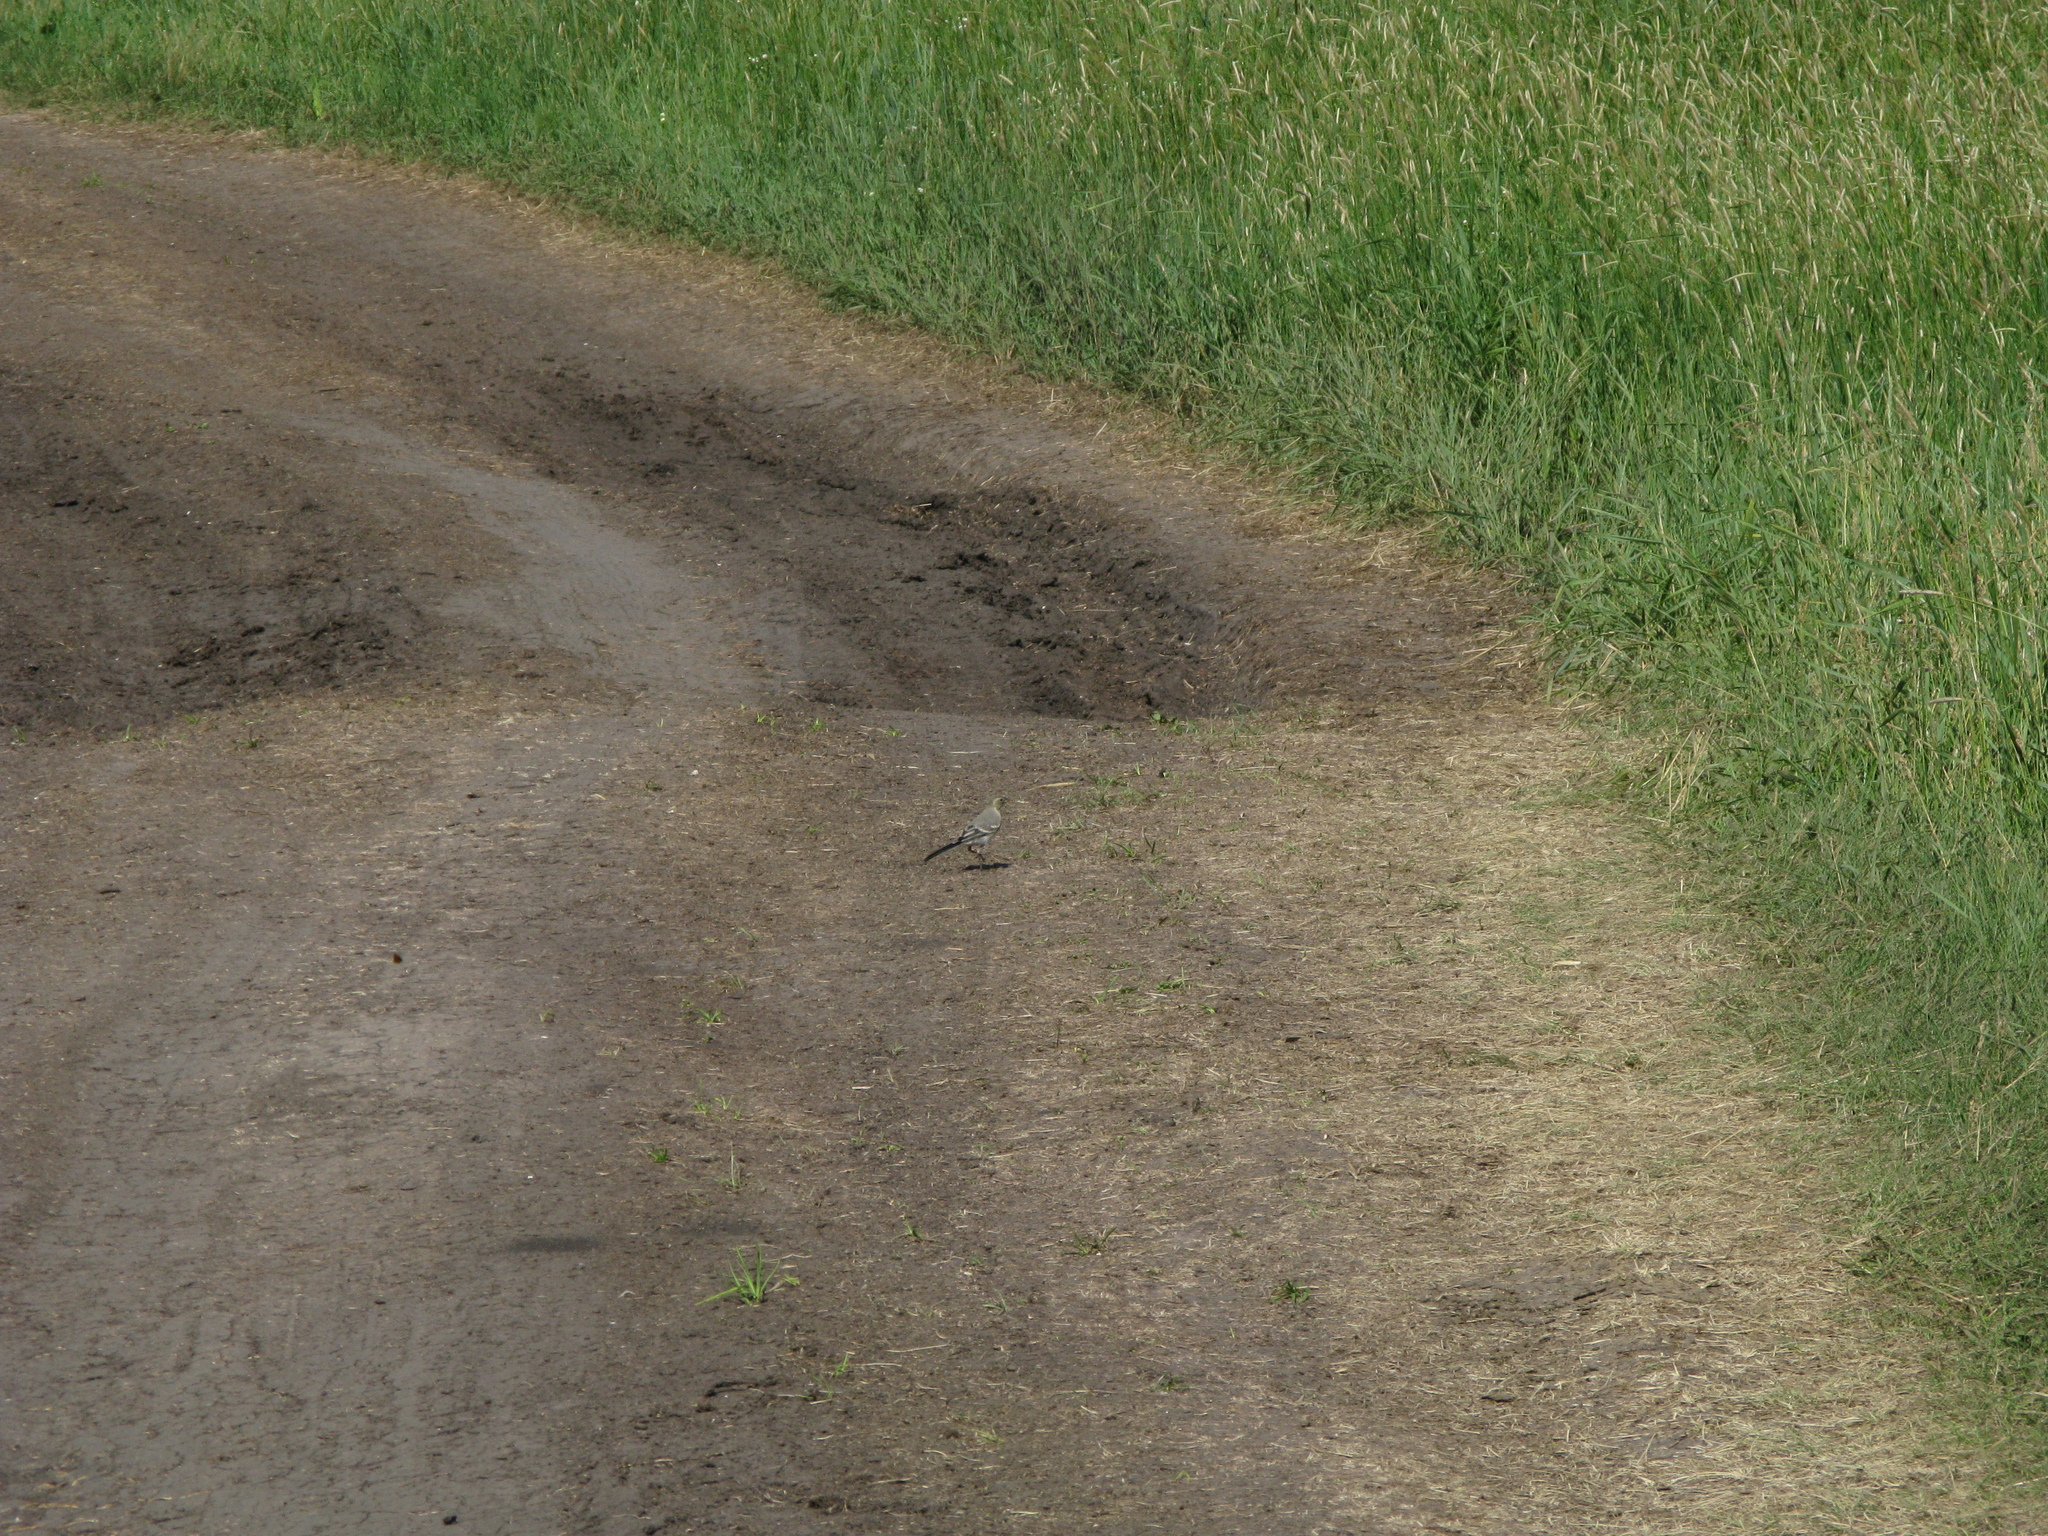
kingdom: Animalia
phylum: Chordata
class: Aves
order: Passeriformes
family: Motacillidae
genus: Motacilla
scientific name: Motacilla alba
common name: White wagtail
